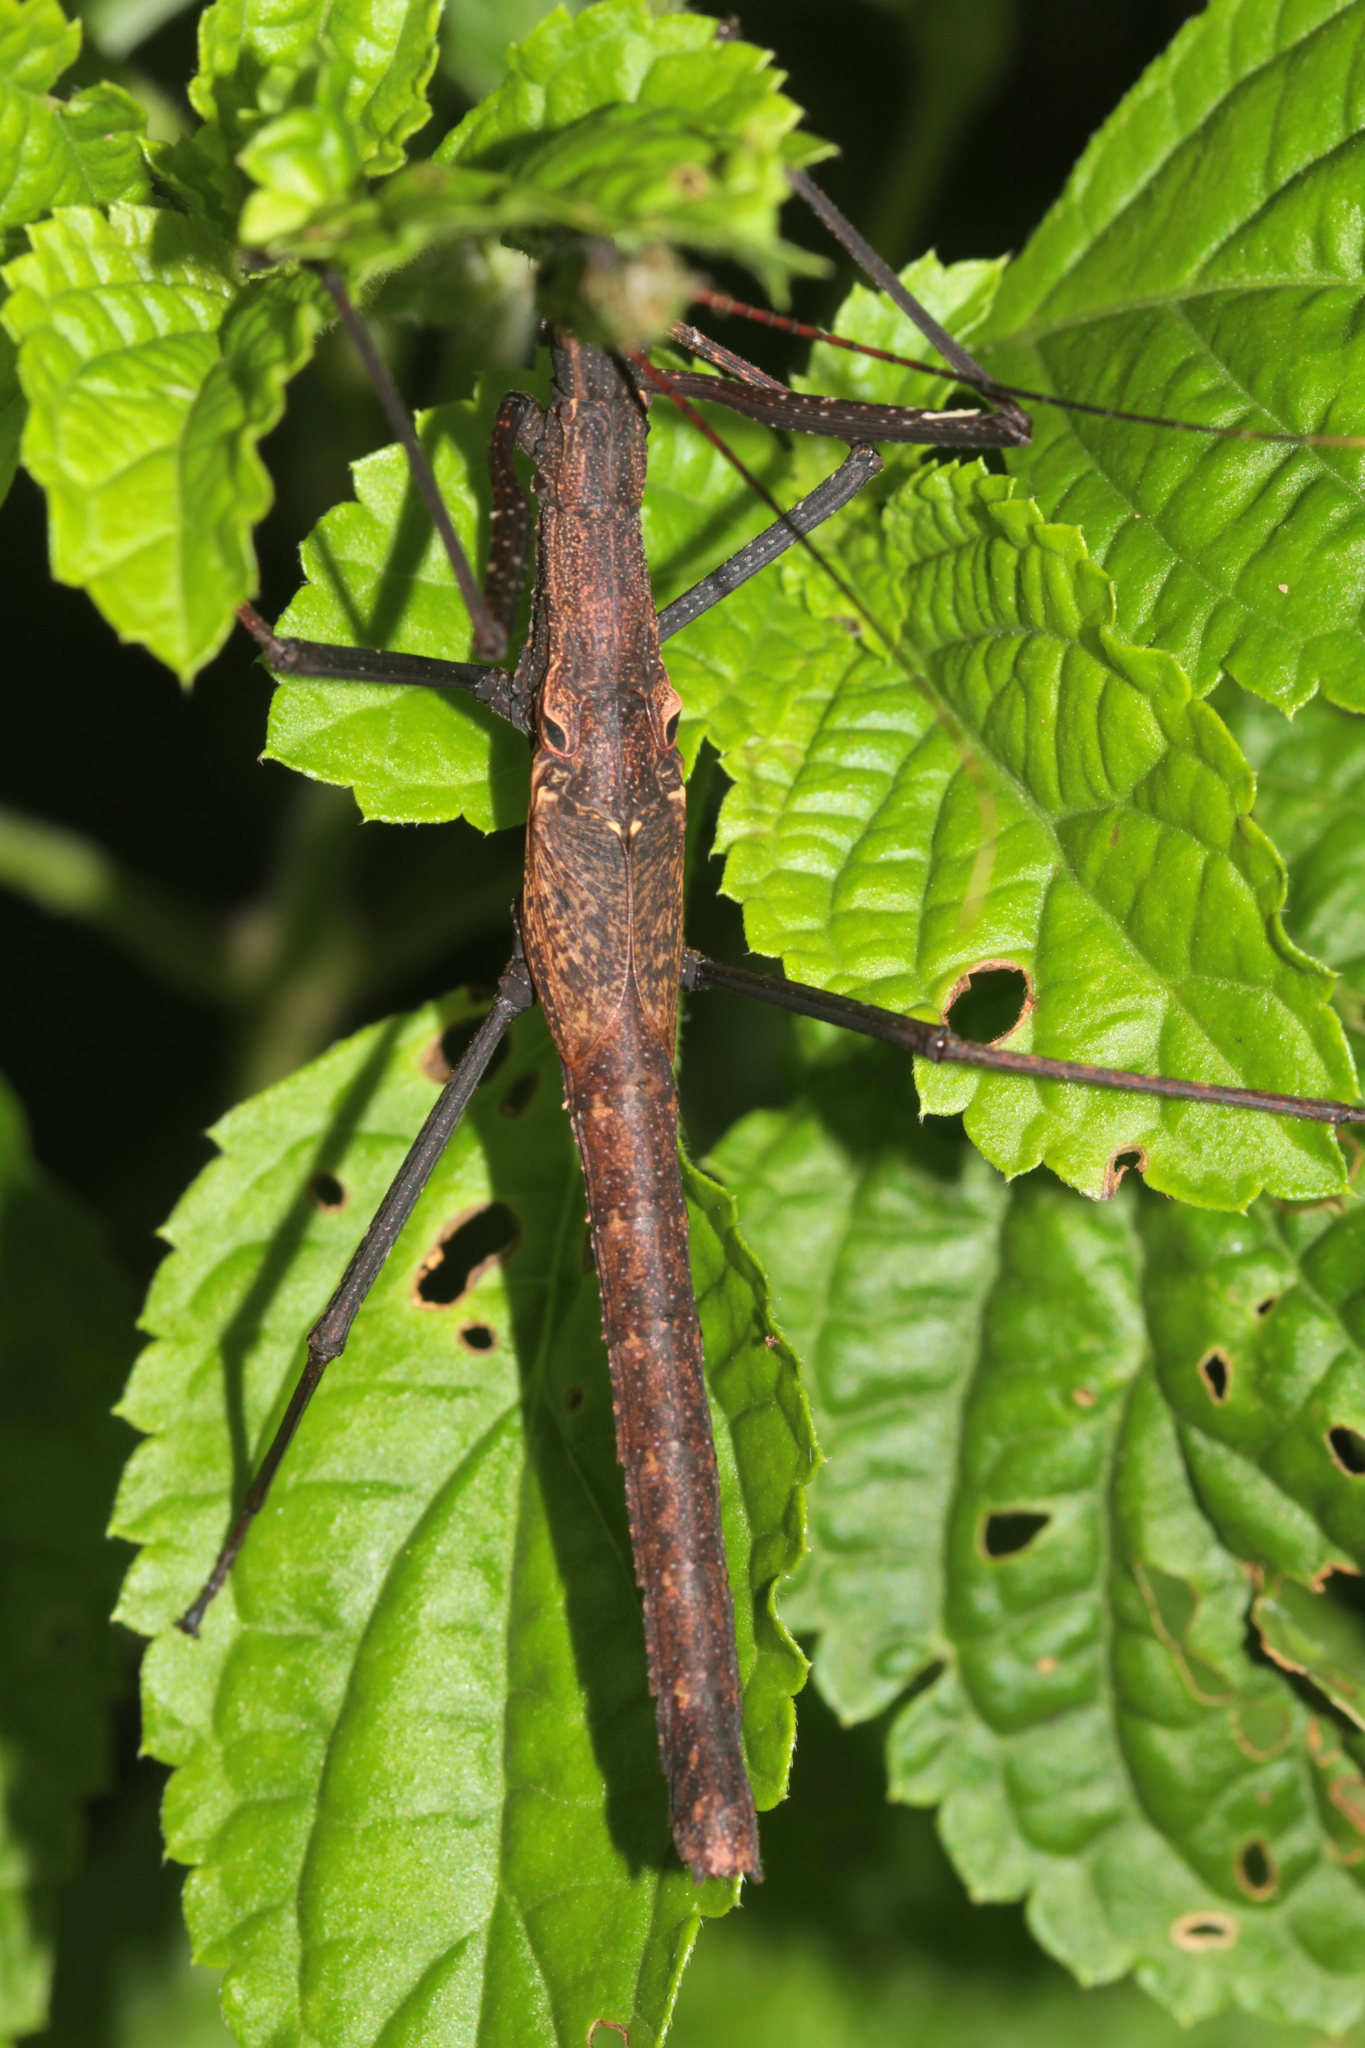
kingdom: Animalia
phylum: Arthropoda
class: Insecta
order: Phasmida
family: Pseudophasmatidae
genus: Pseudophasma
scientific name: Pseudophasma phthisicum
